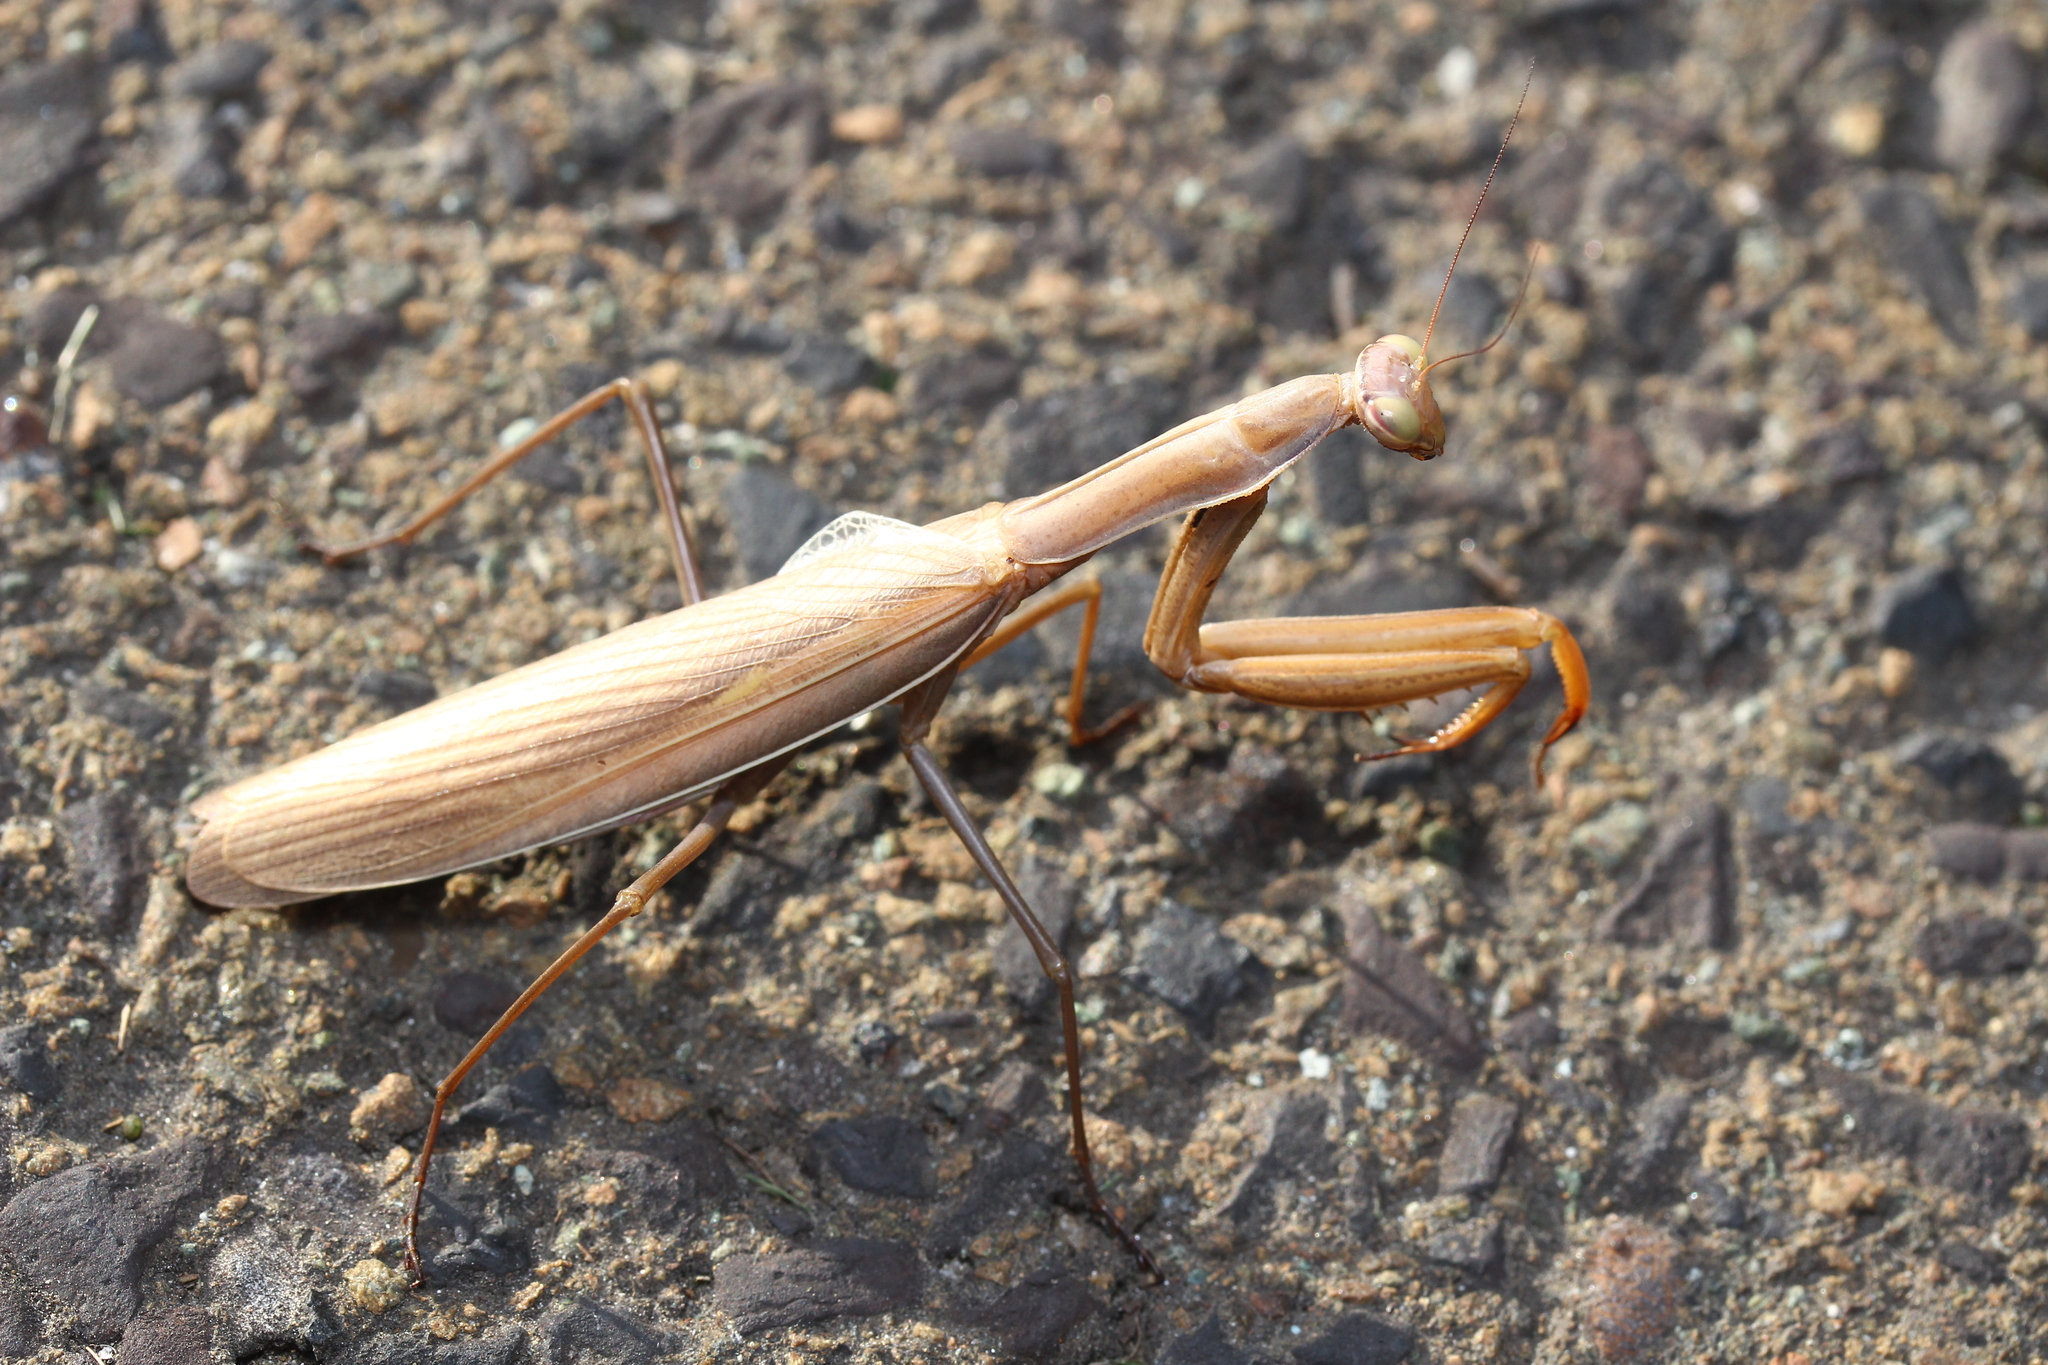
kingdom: Animalia
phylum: Arthropoda
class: Insecta
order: Mantodea
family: Mantidae
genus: Mantis
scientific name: Mantis religiosa
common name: Praying mantis
